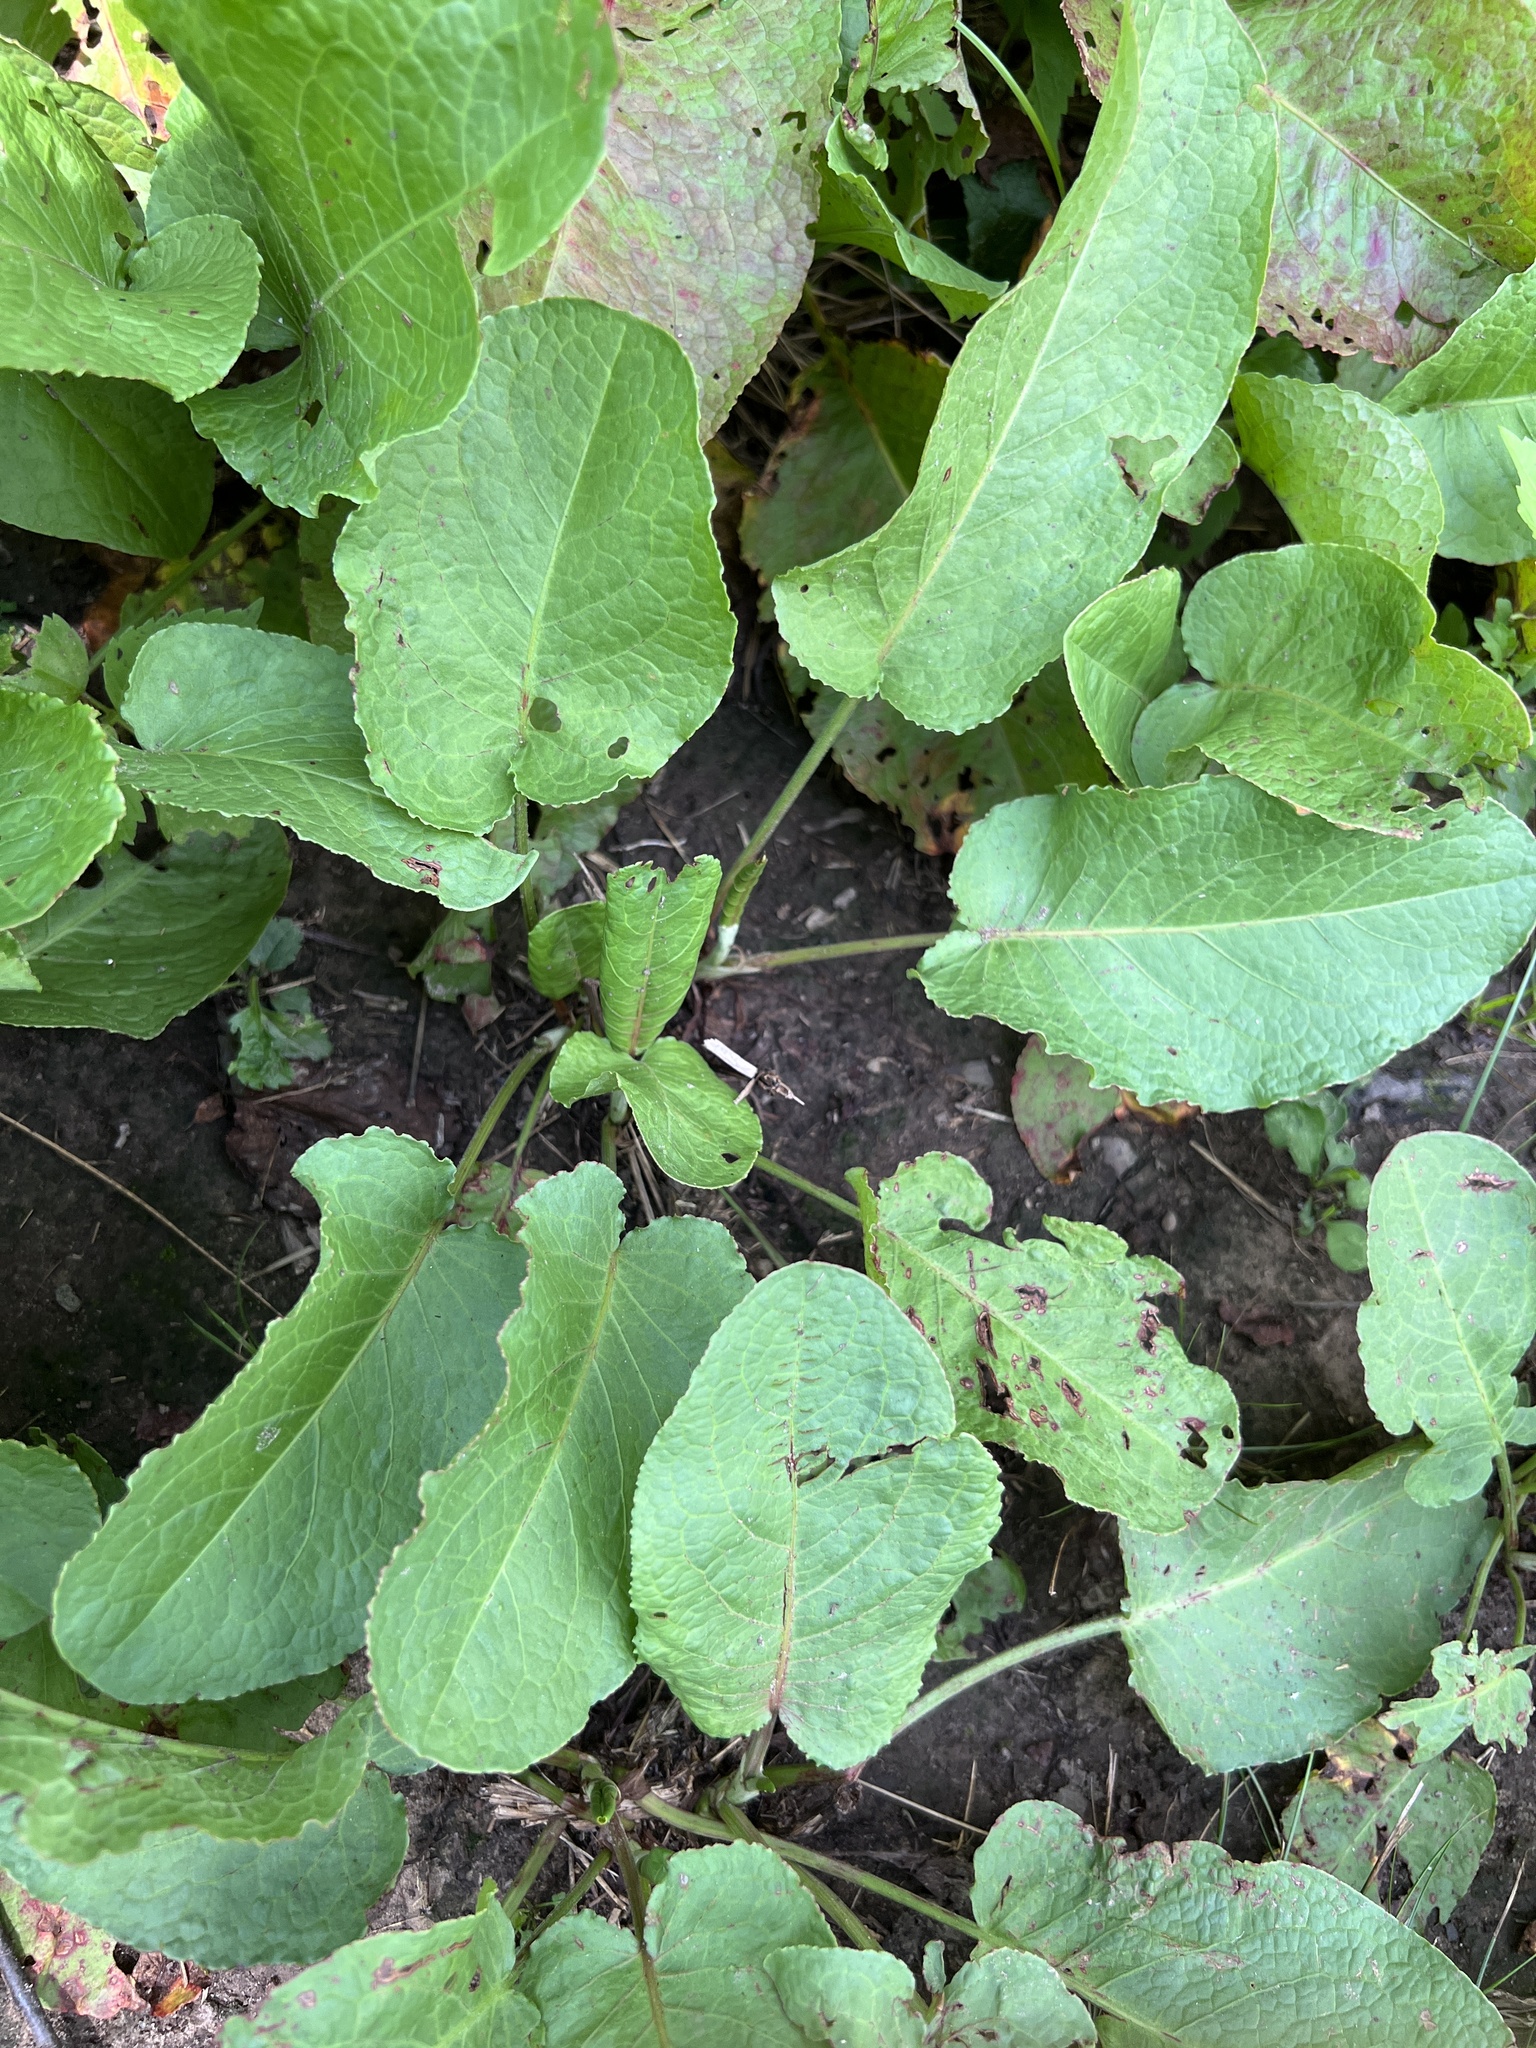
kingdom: Plantae
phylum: Tracheophyta
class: Magnoliopsida
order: Caryophyllales
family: Polygonaceae
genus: Rumex
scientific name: Rumex obtusifolius
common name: Bitter dock
